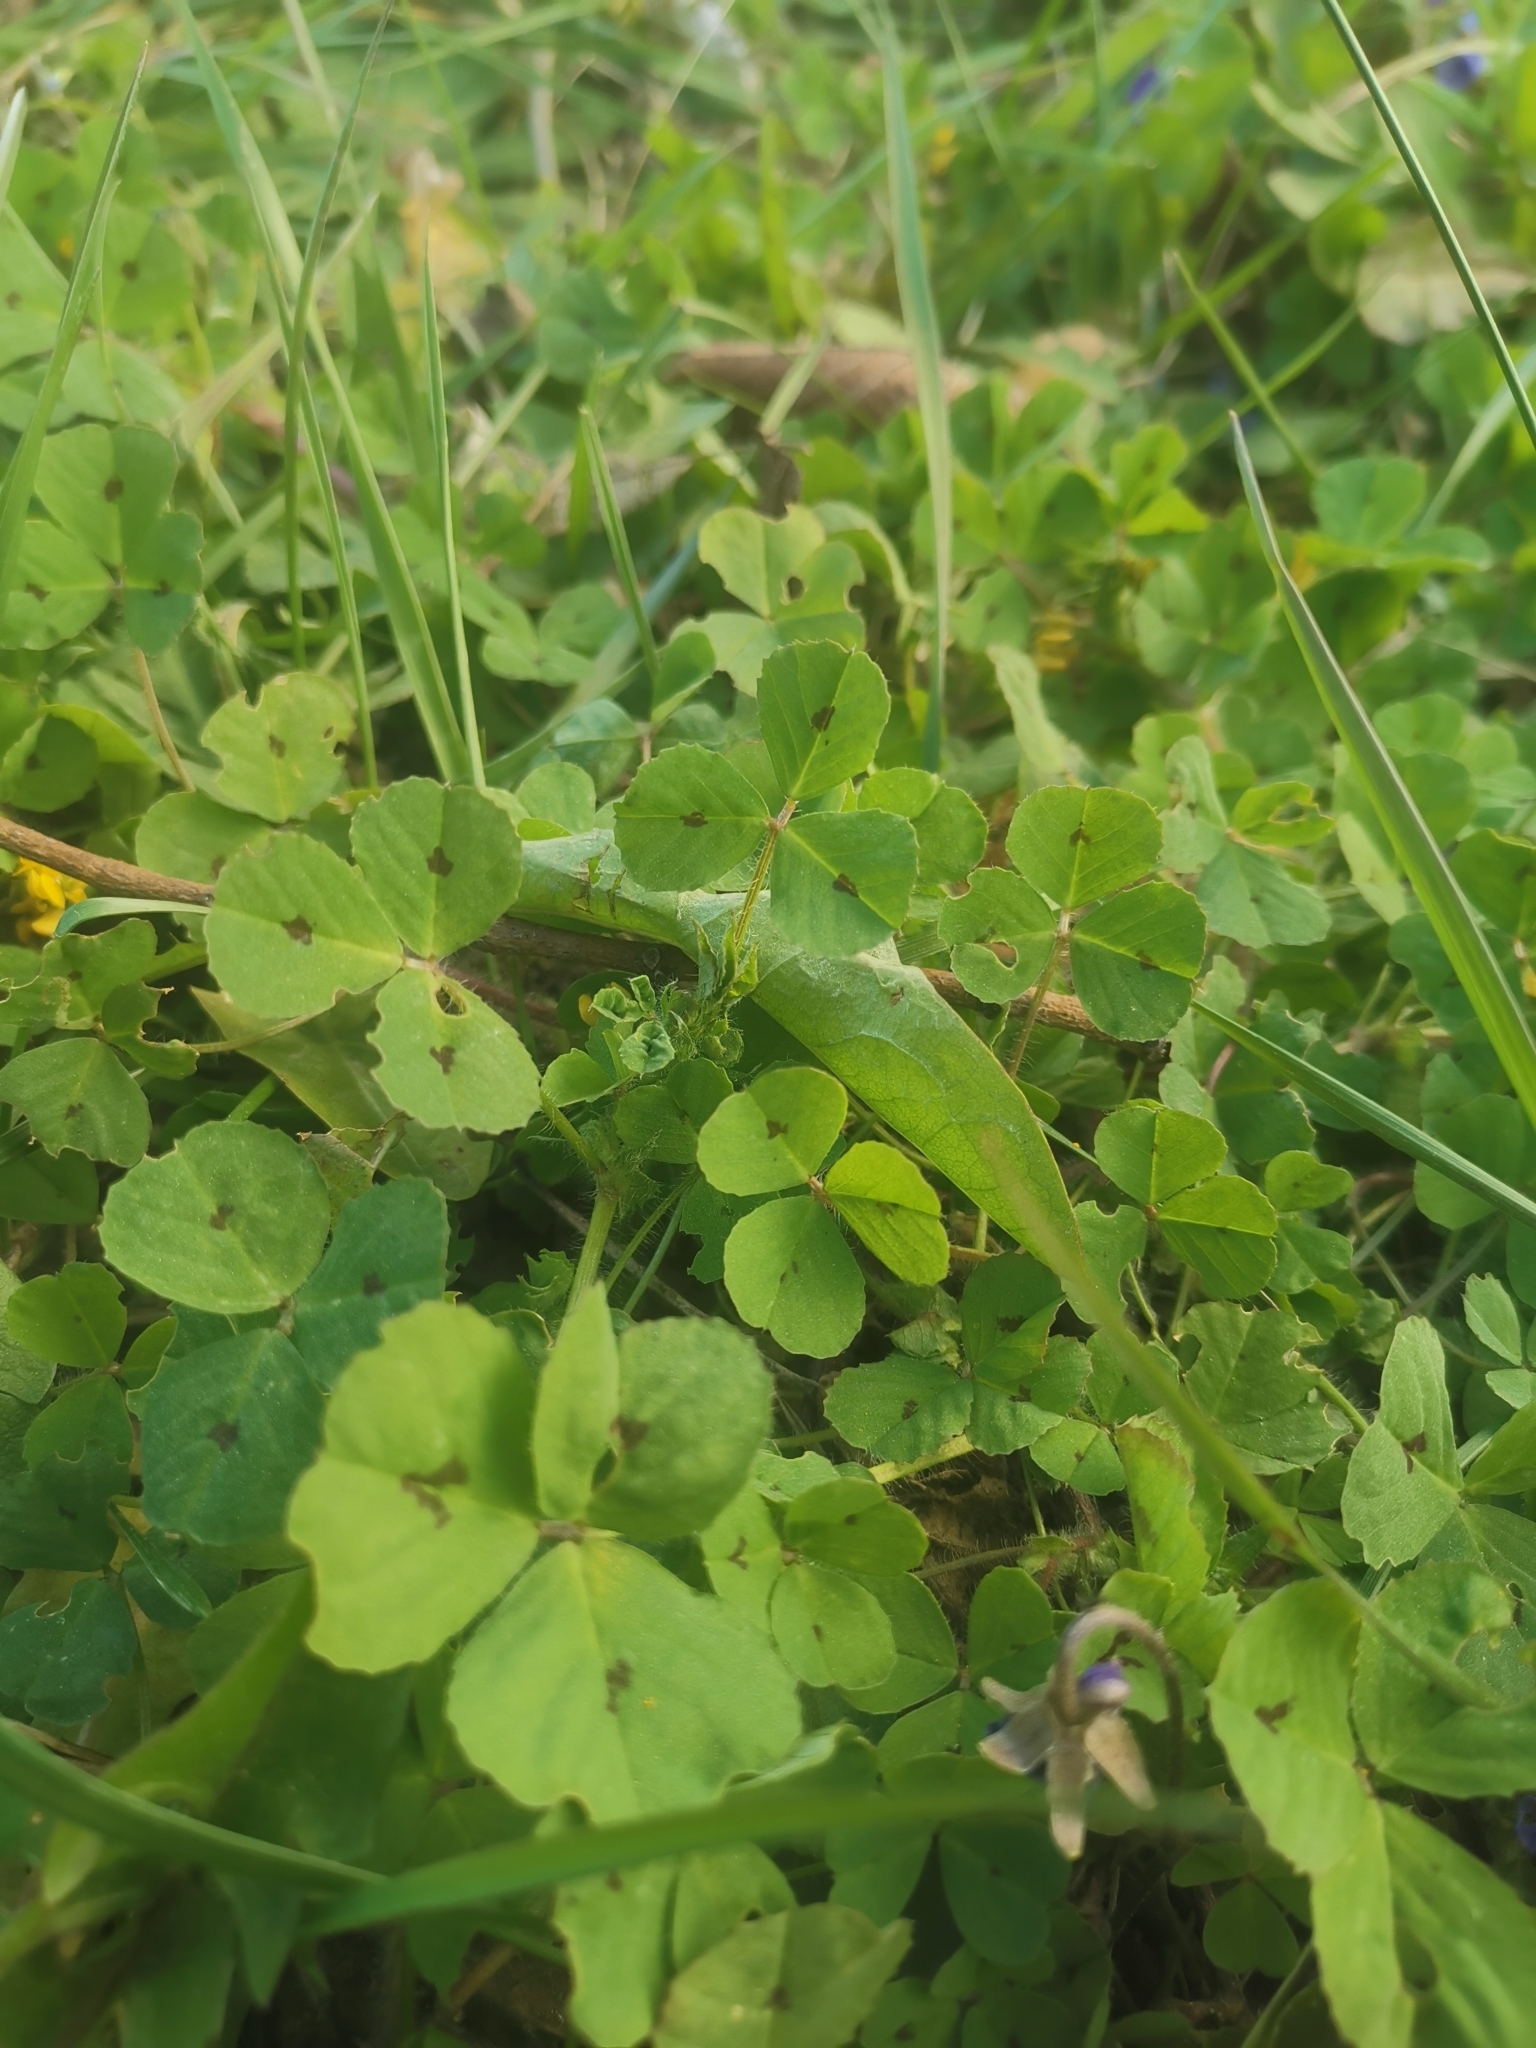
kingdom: Plantae
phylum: Tracheophyta
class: Magnoliopsida
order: Fabales
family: Fabaceae
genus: Medicago
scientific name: Medicago arabica
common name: Spotted medick
